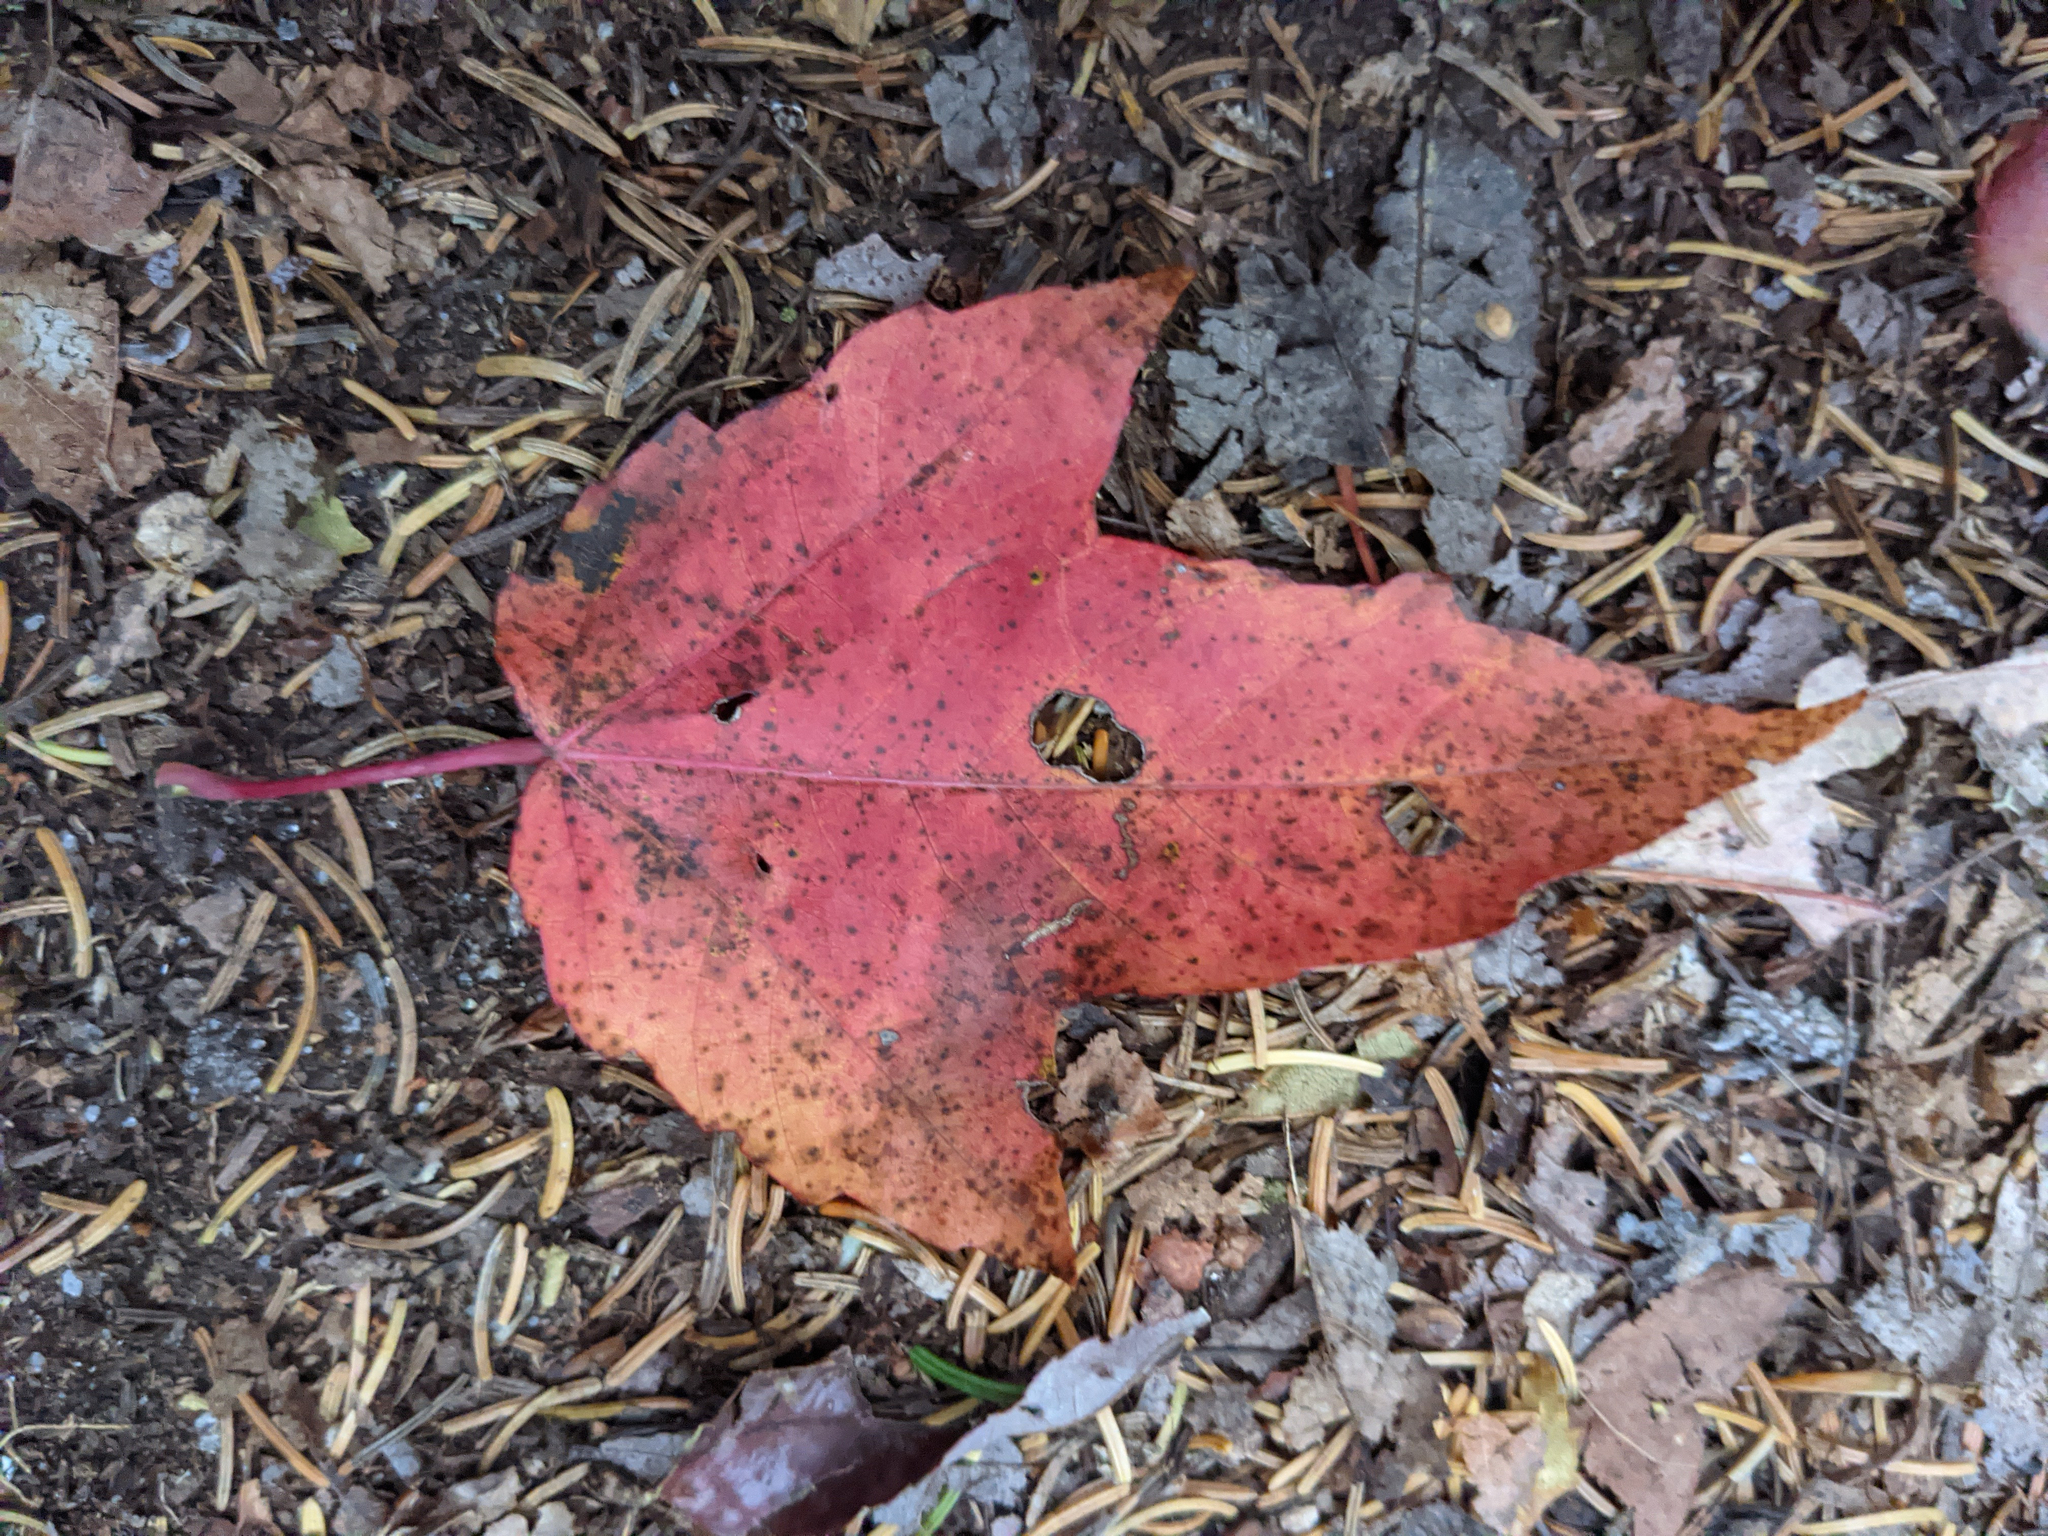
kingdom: Plantae
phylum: Tracheophyta
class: Magnoliopsida
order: Sapindales
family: Sapindaceae
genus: Acer
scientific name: Acer rubrum
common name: Red maple
